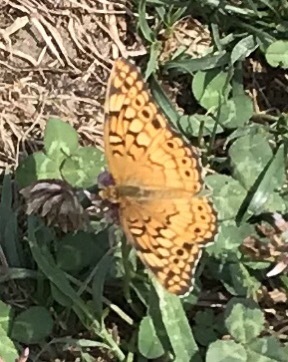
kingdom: Animalia
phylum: Arthropoda
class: Insecta
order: Lepidoptera
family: Nymphalidae
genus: Euptoieta
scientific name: Euptoieta claudia
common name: Variegated fritillary
